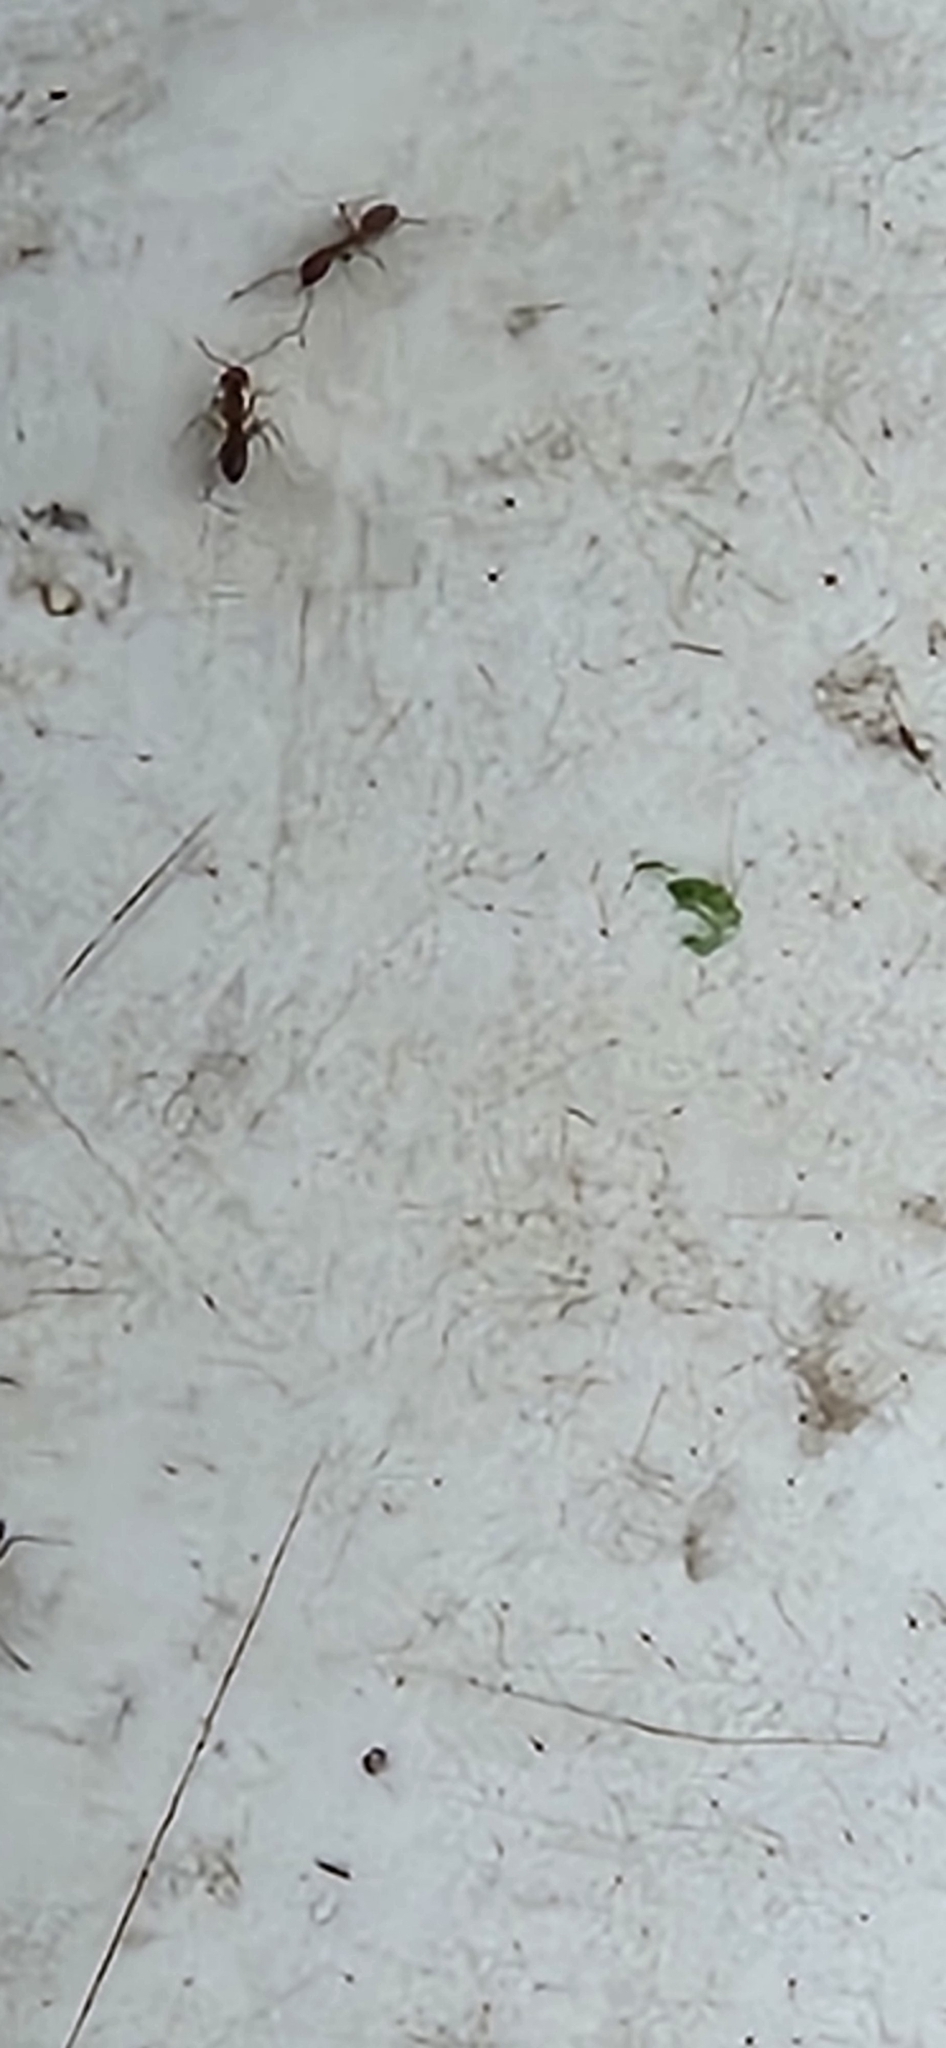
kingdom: Animalia
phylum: Arthropoda
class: Insecta
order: Hymenoptera
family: Formicidae
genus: Linepithema
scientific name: Linepithema humile
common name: Argentine ant
